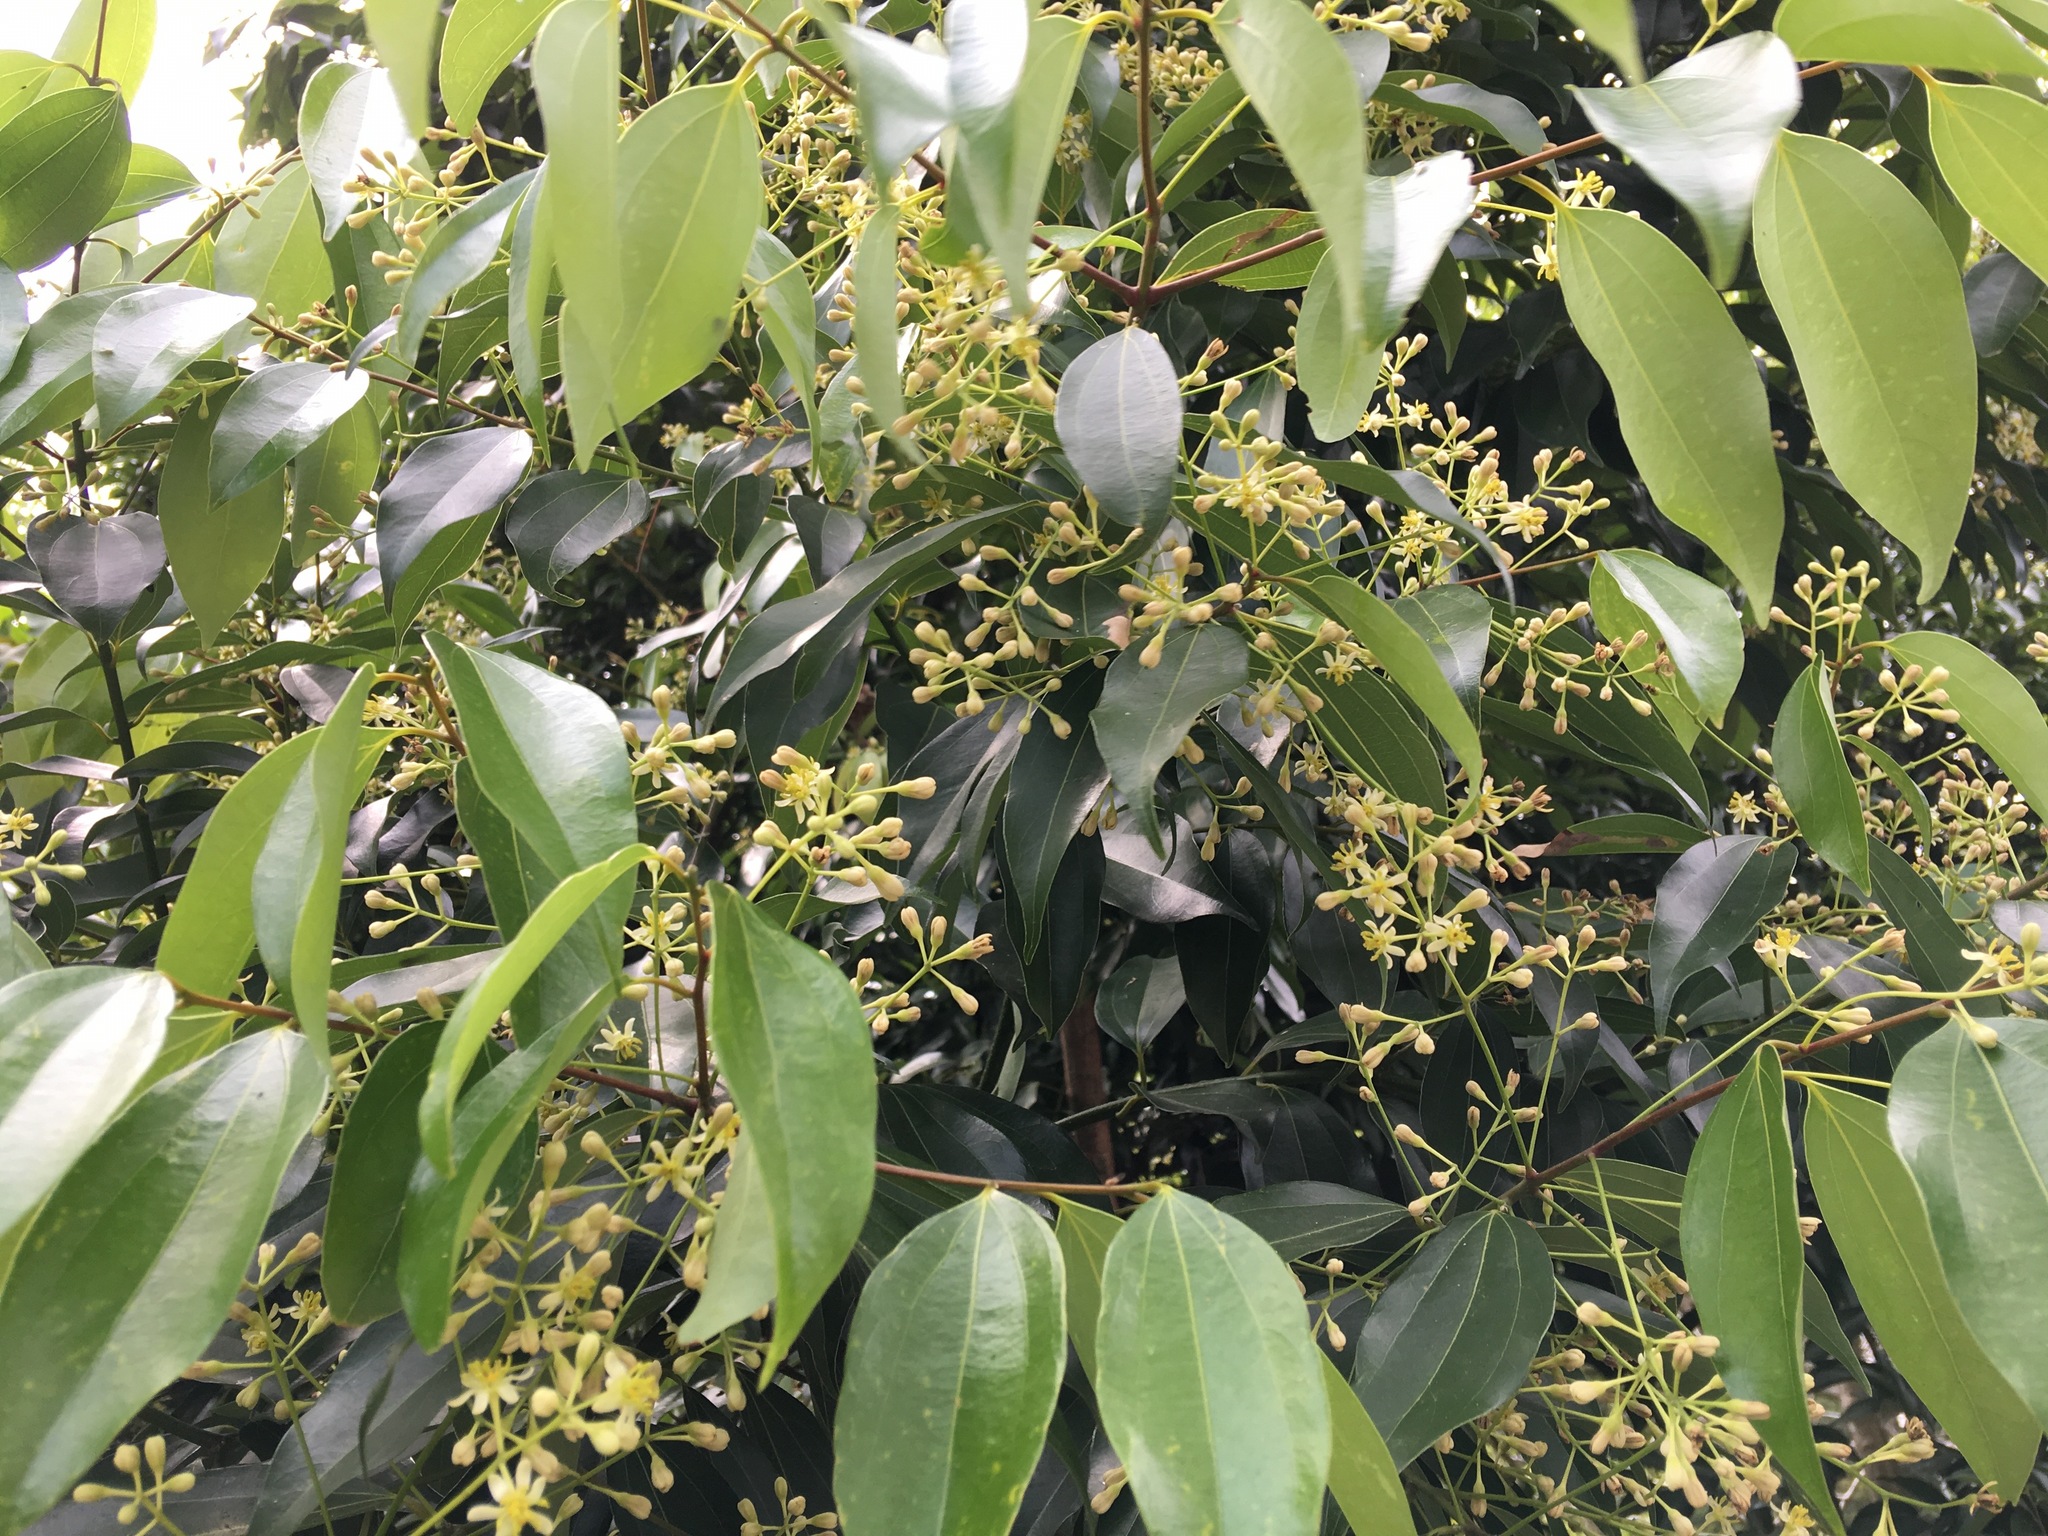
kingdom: Plantae
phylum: Tracheophyta
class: Magnoliopsida
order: Laurales
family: Lauraceae
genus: Cinnamomum
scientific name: Cinnamomum burmanni
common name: Padang cassia
